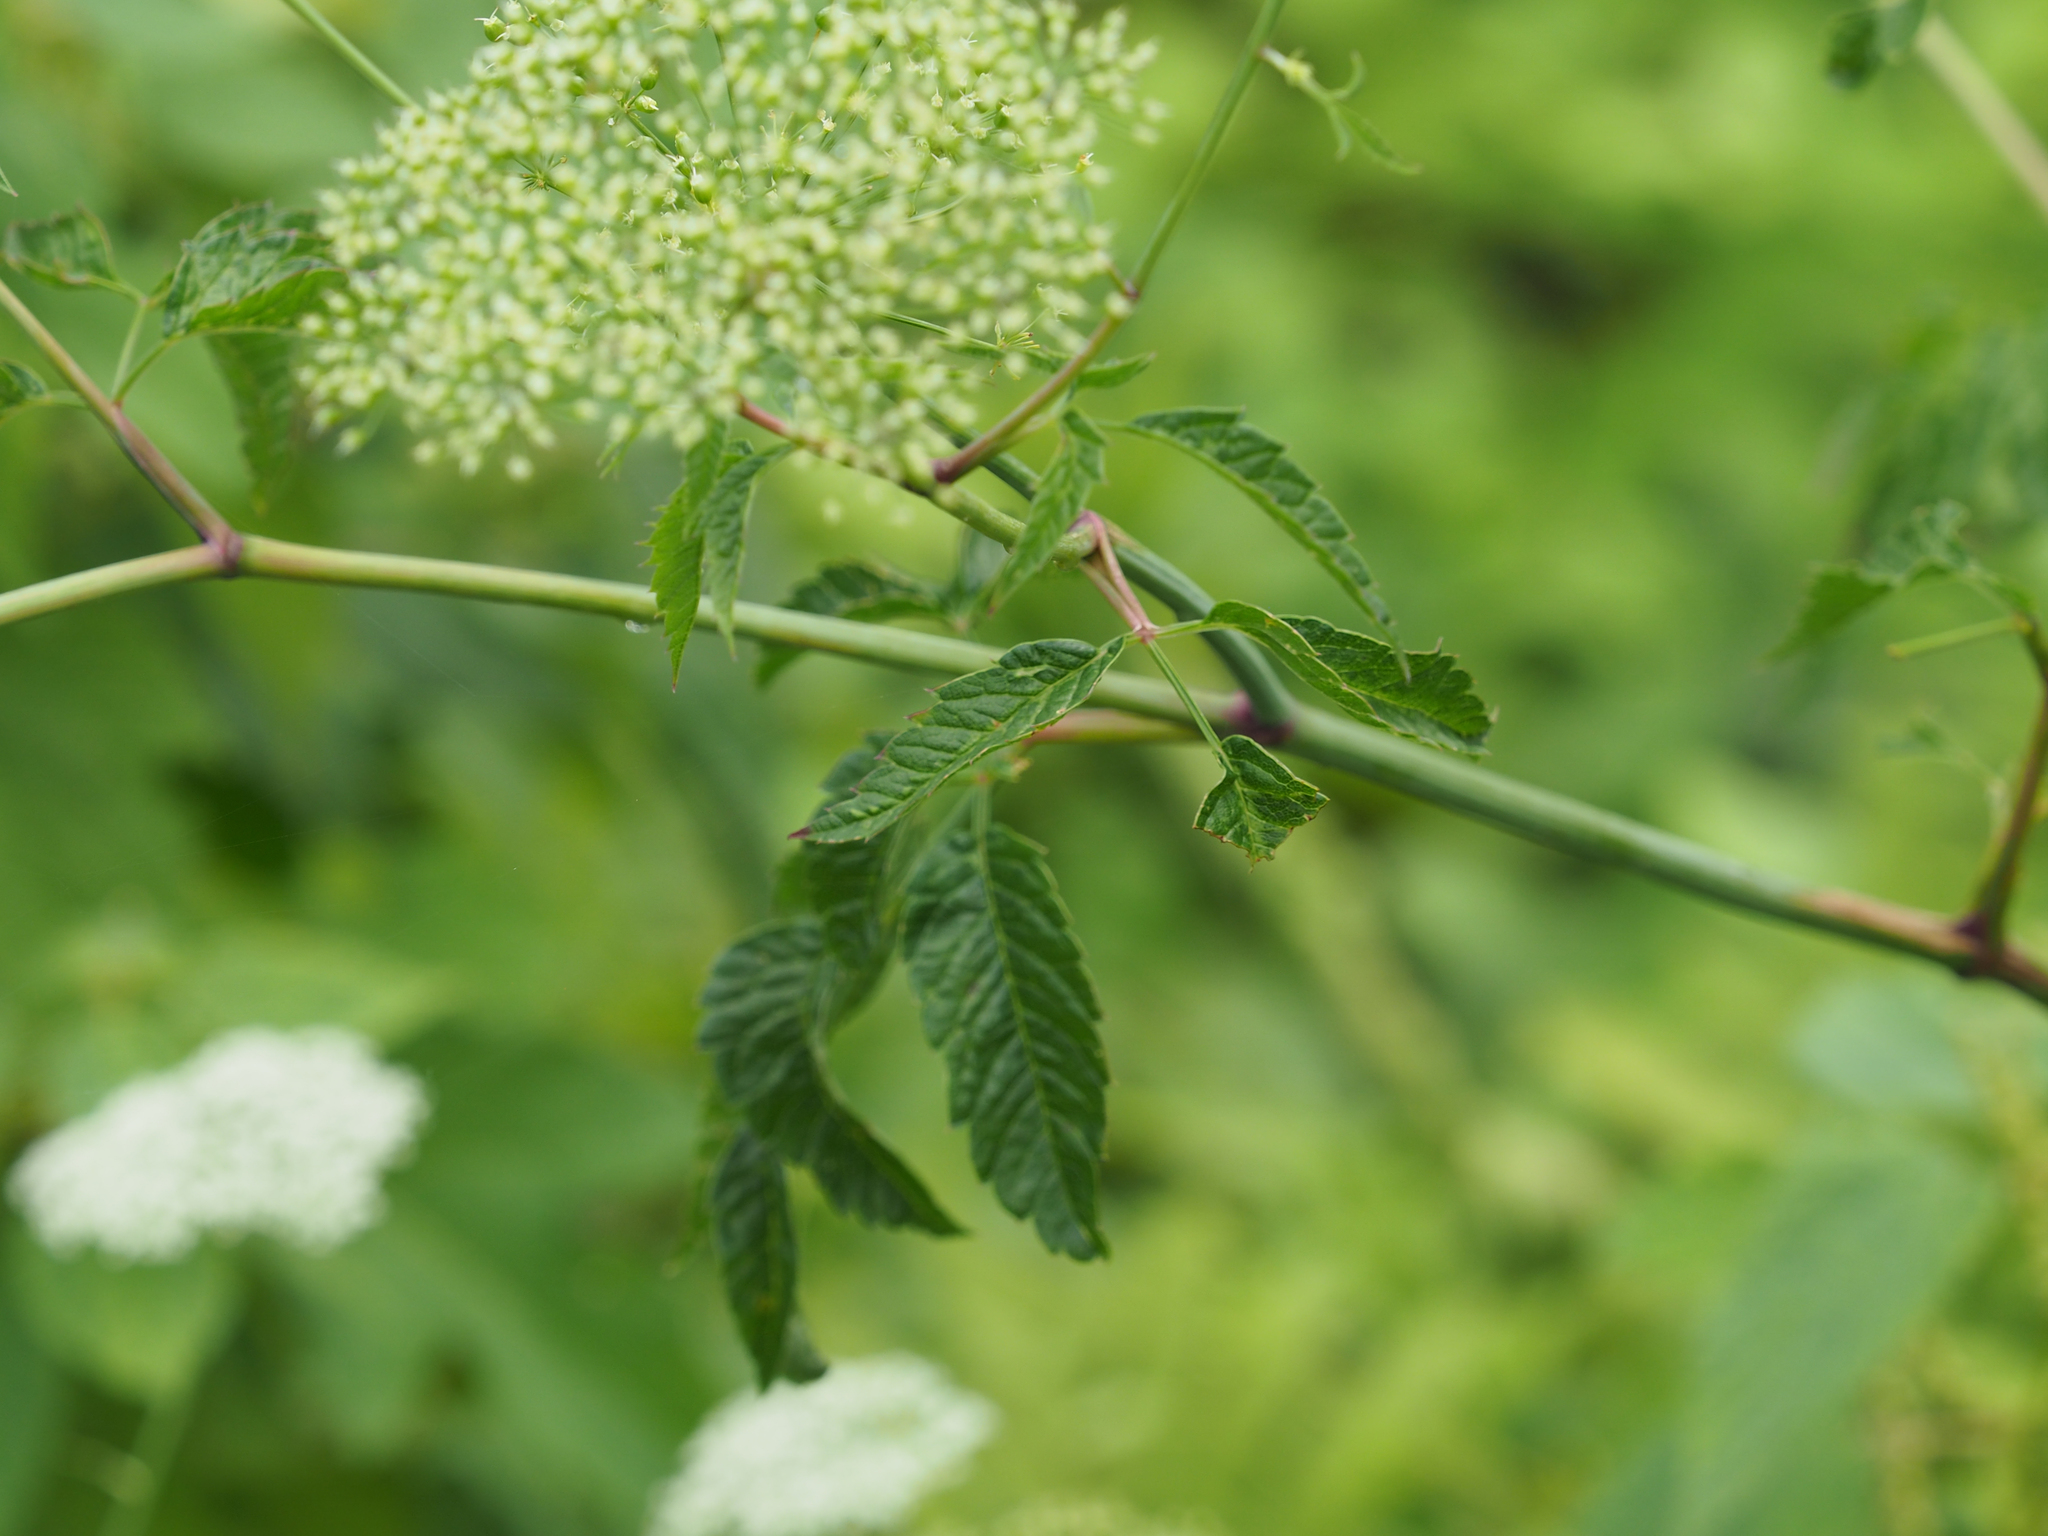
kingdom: Plantae
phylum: Tracheophyta
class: Magnoliopsida
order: Apiales
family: Apiaceae
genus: Cicuta
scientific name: Cicuta maculata
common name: Spotted cowbane
